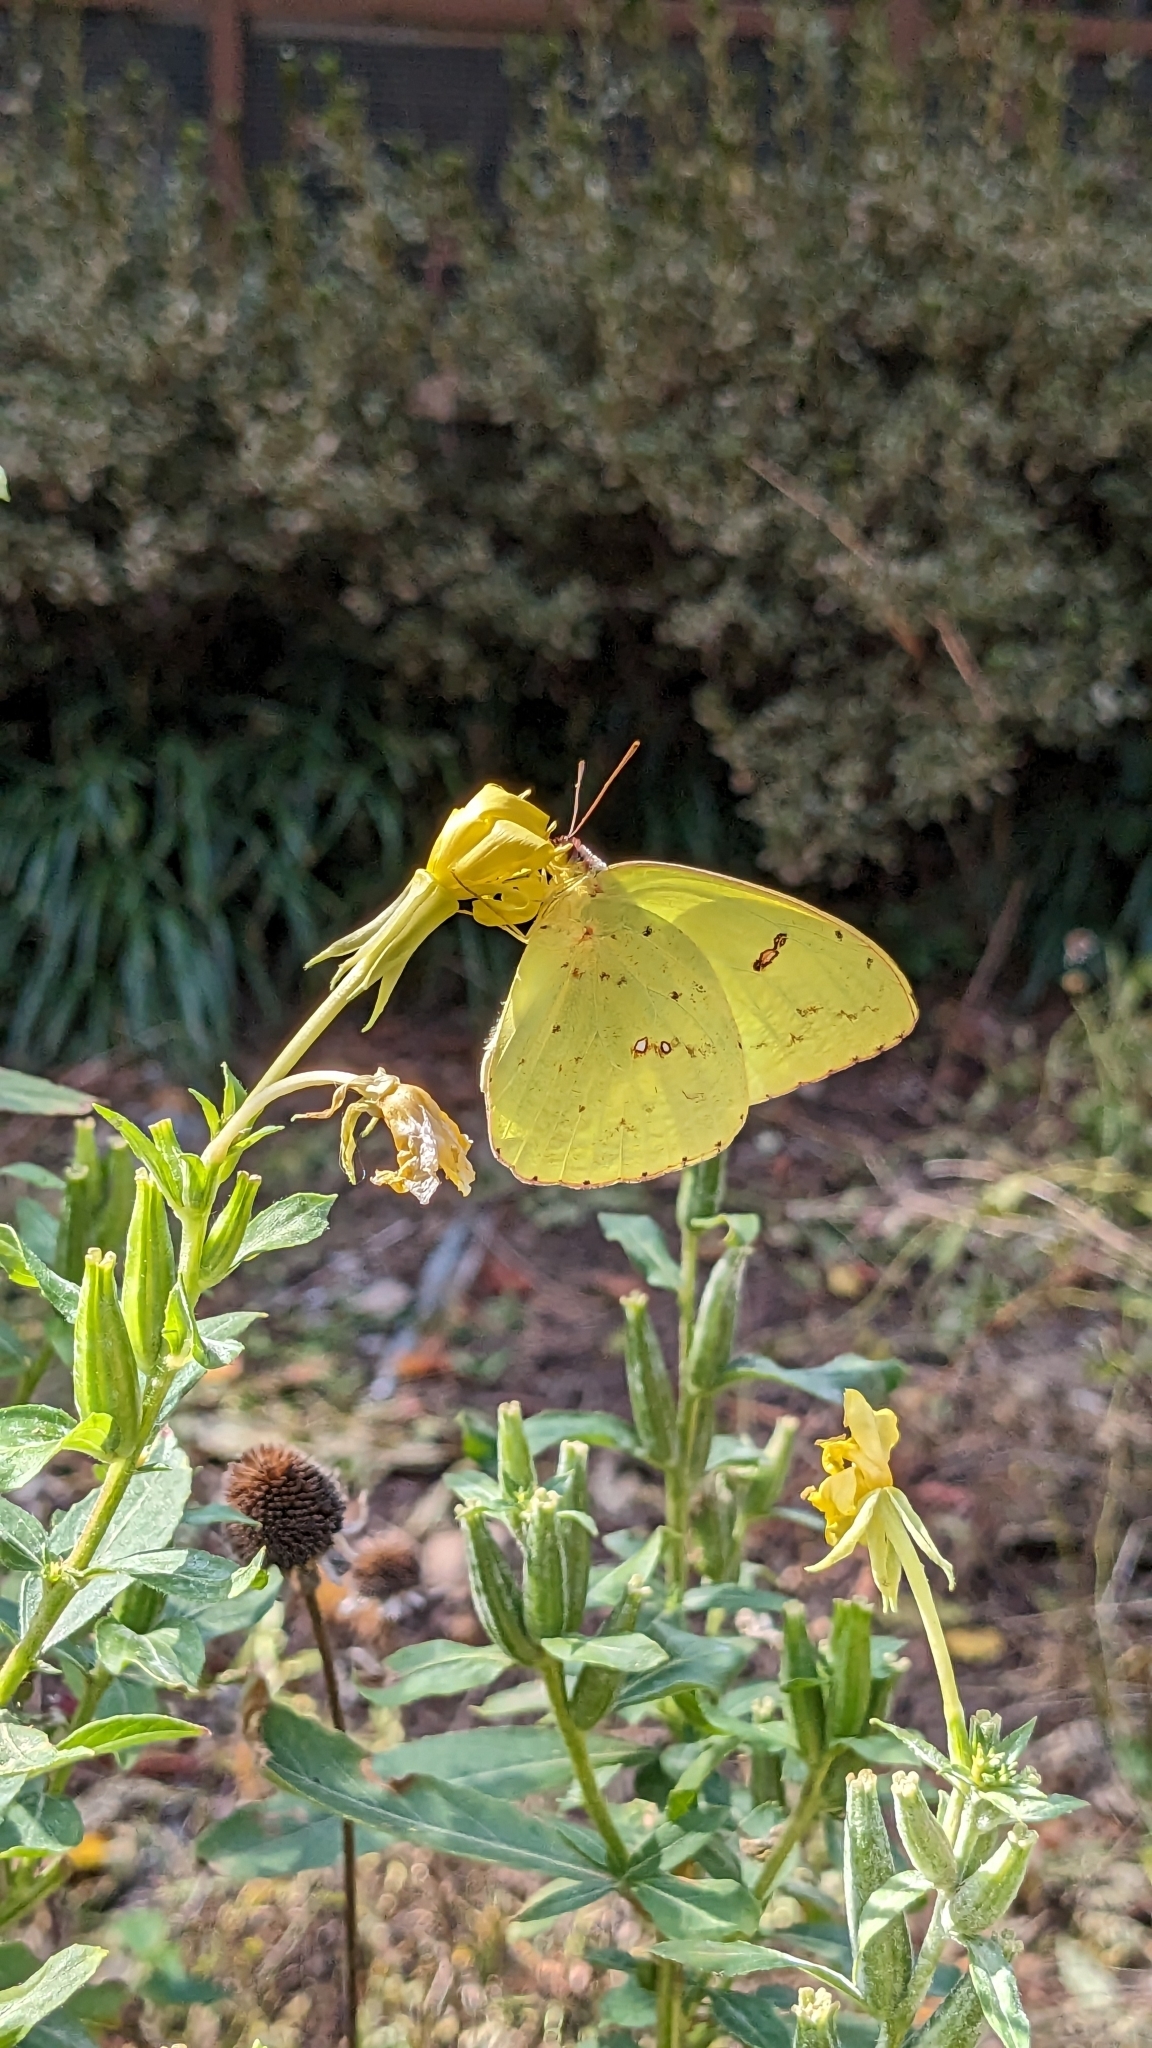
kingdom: Animalia
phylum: Arthropoda
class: Insecta
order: Lepidoptera
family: Pieridae
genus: Phoebis
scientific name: Phoebis sennae
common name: Cloudless sulphur
